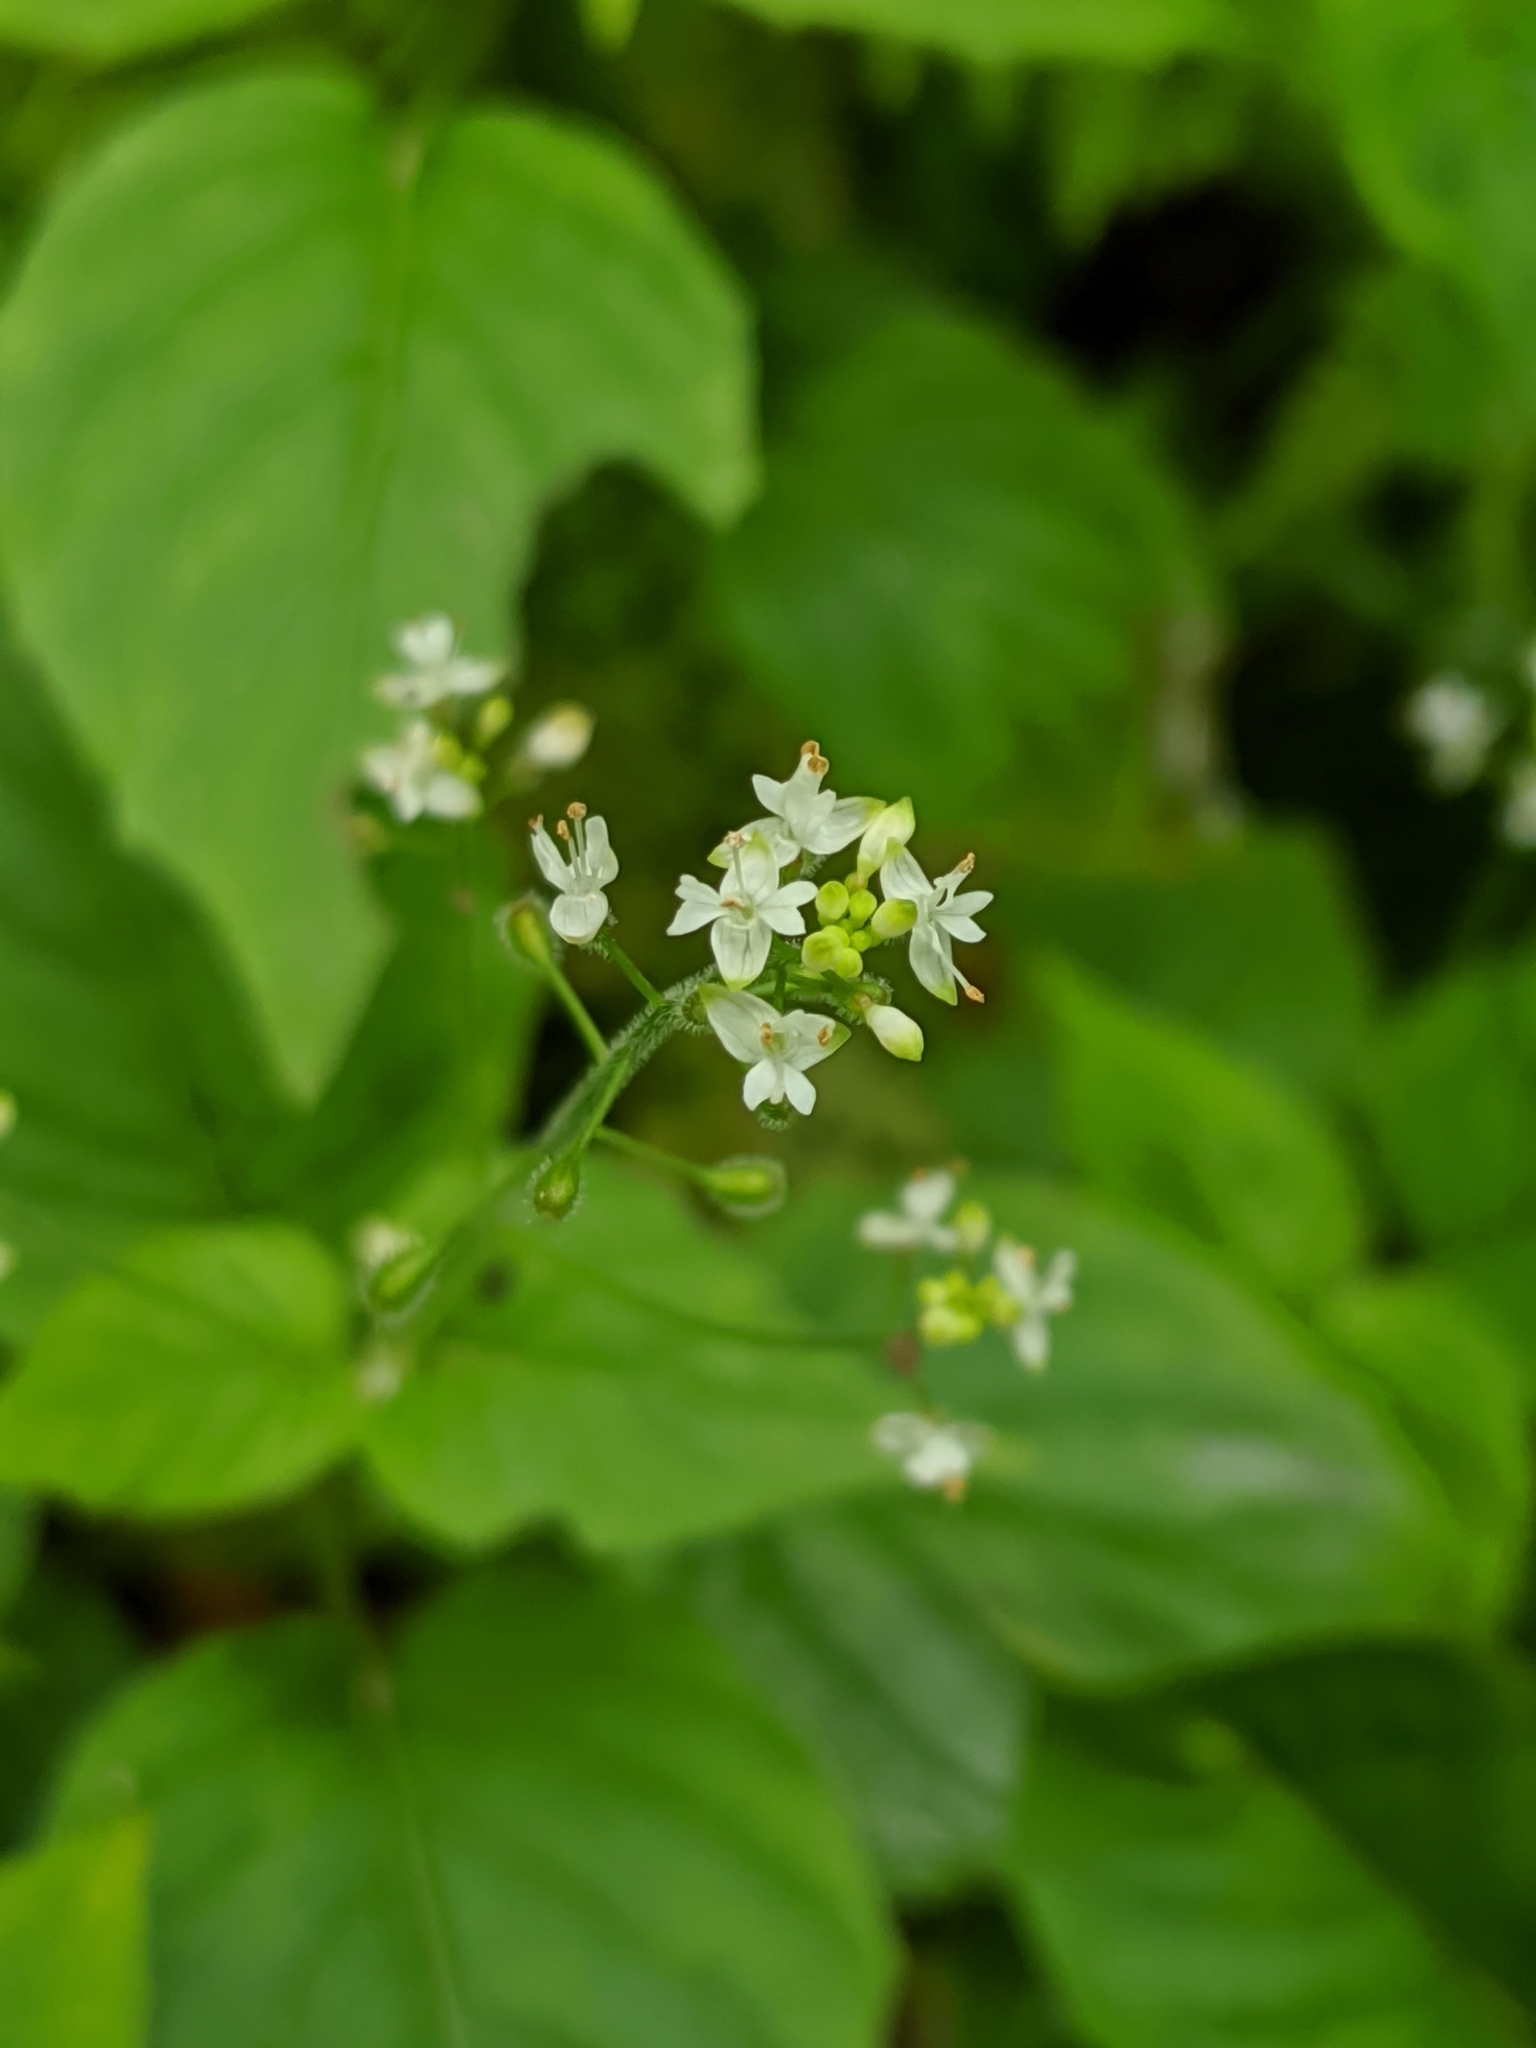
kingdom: Plantae
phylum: Tracheophyta
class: Magnoliopsida
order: Myrtales
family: Onagraceae
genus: Circaea
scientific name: Circaea alpina
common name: Alpine enchanter's-nightshade
